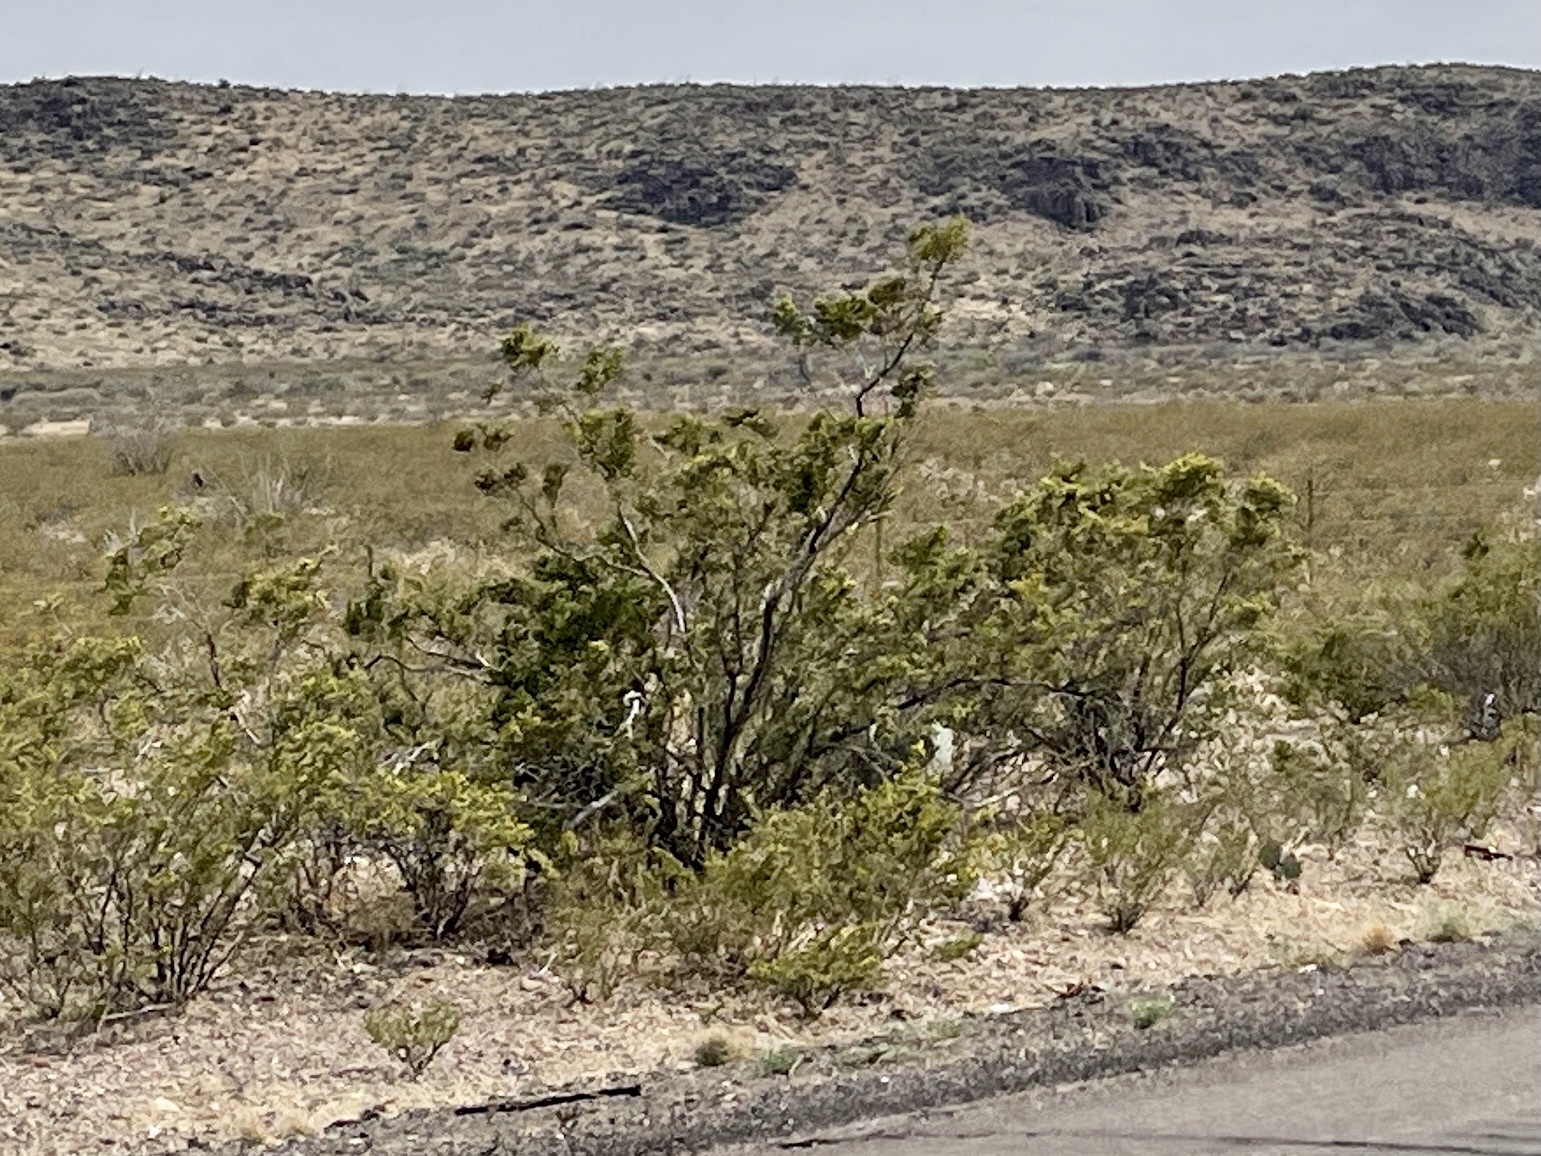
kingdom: Plantae
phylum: Tracheophyta
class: Magnoliopsida
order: Zygophyllales
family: Zygophyllaceae
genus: Larrea
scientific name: Larrea tridentata
